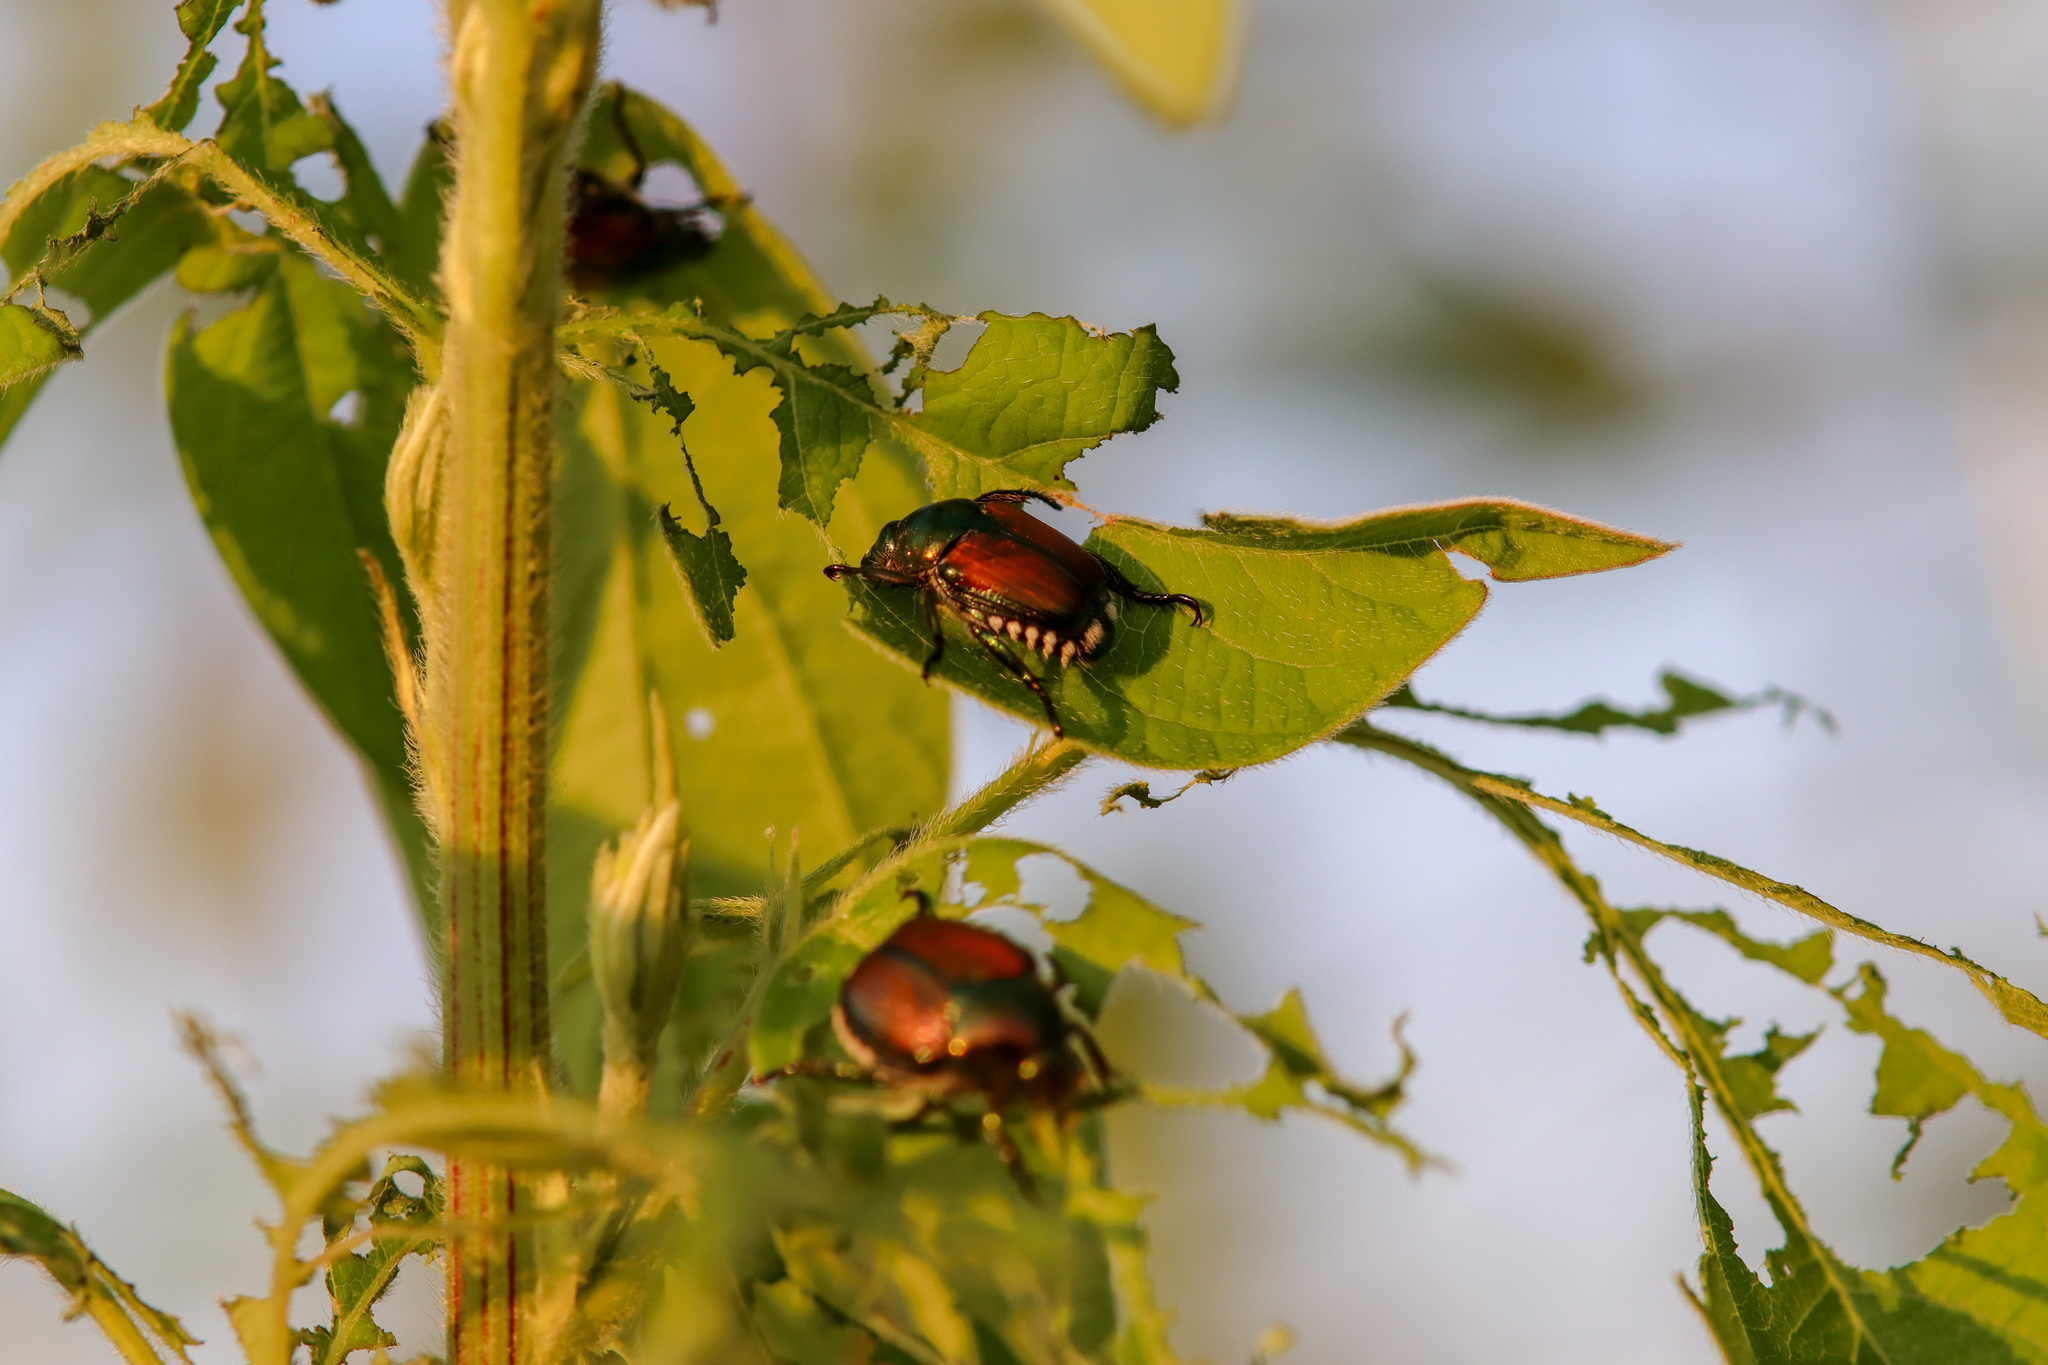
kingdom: Animalia
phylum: Arthropoda
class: Insecta
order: Coleoptera
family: Scarabaeidae
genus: Popillia
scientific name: Popillia japonica
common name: Japanese beetle
